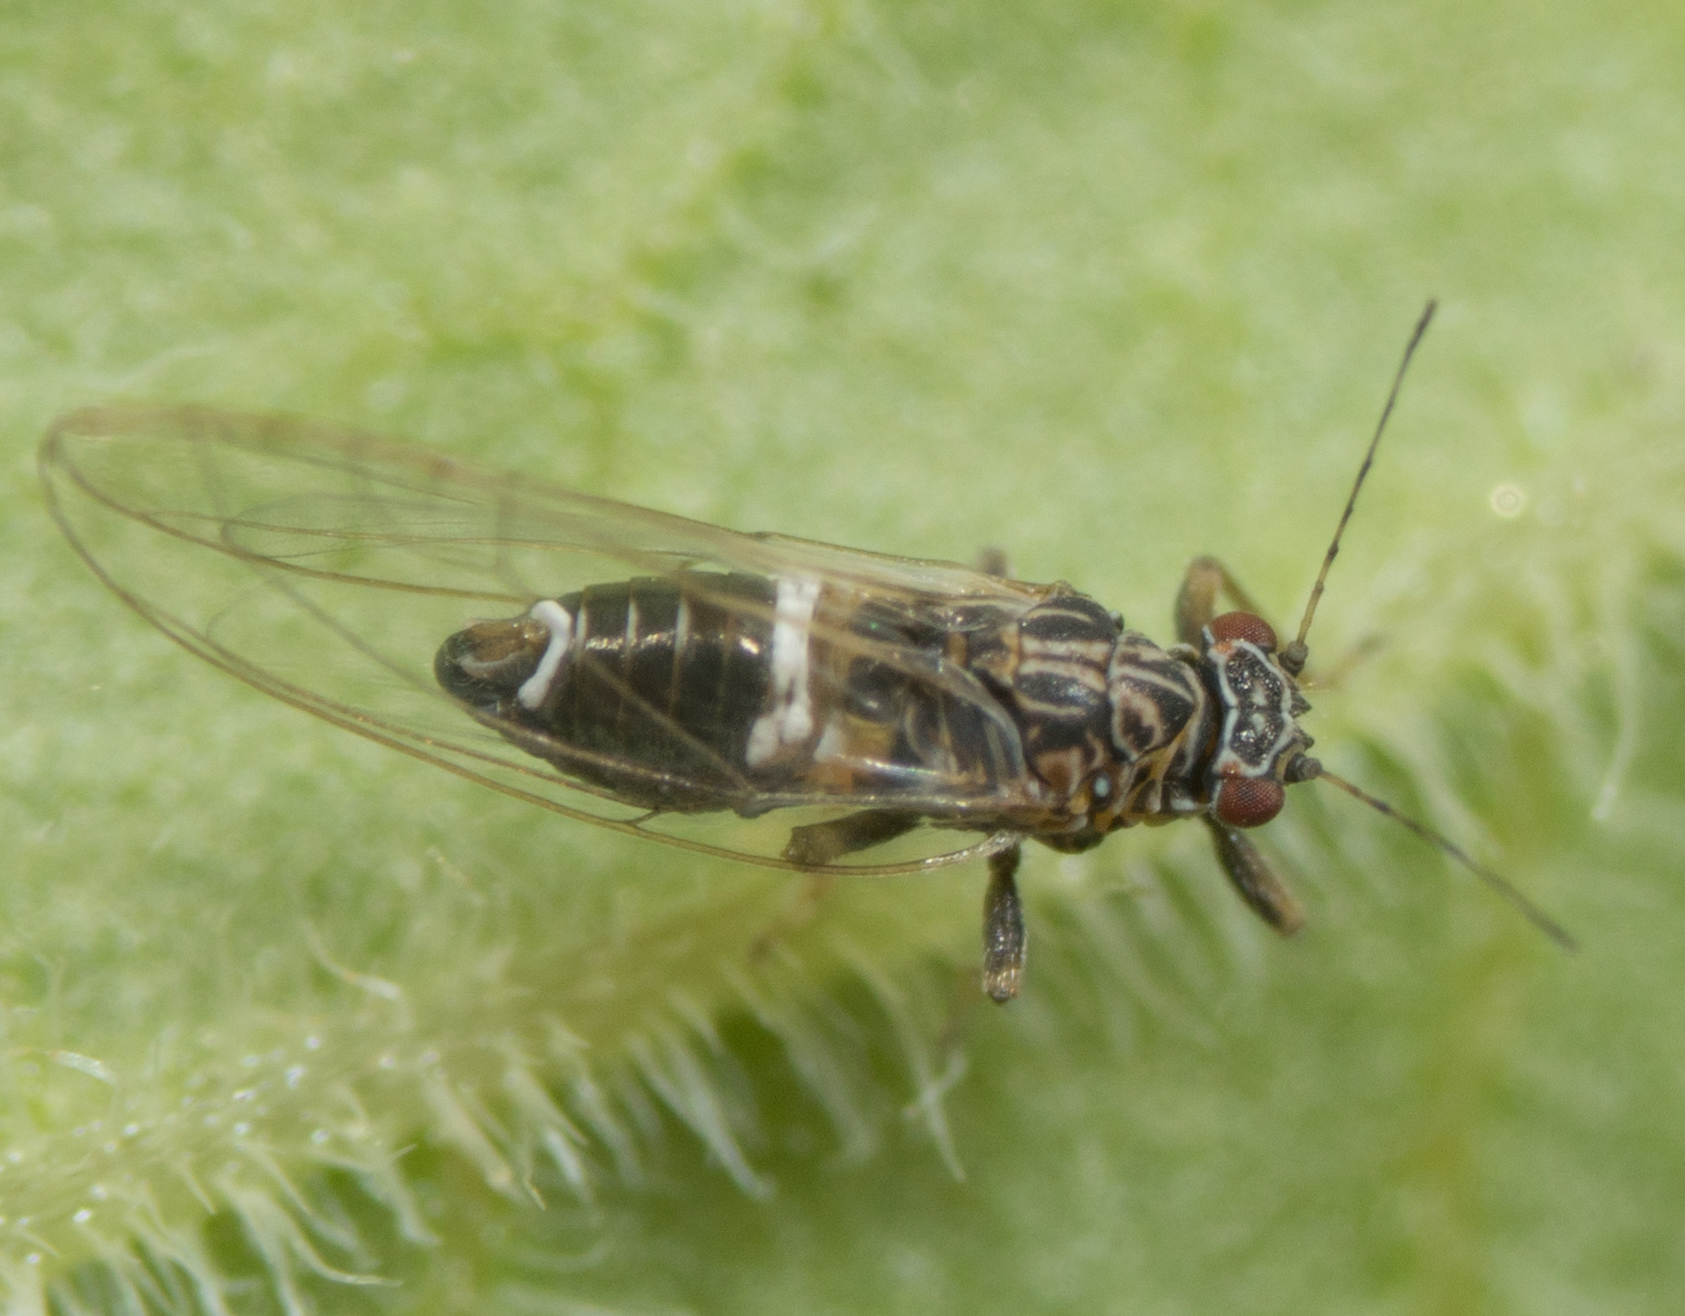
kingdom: Animalia
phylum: Arthropoda
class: Insecta
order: Hemiptera
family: Triozidae
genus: Bactericera
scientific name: Bactericera cockerelli
